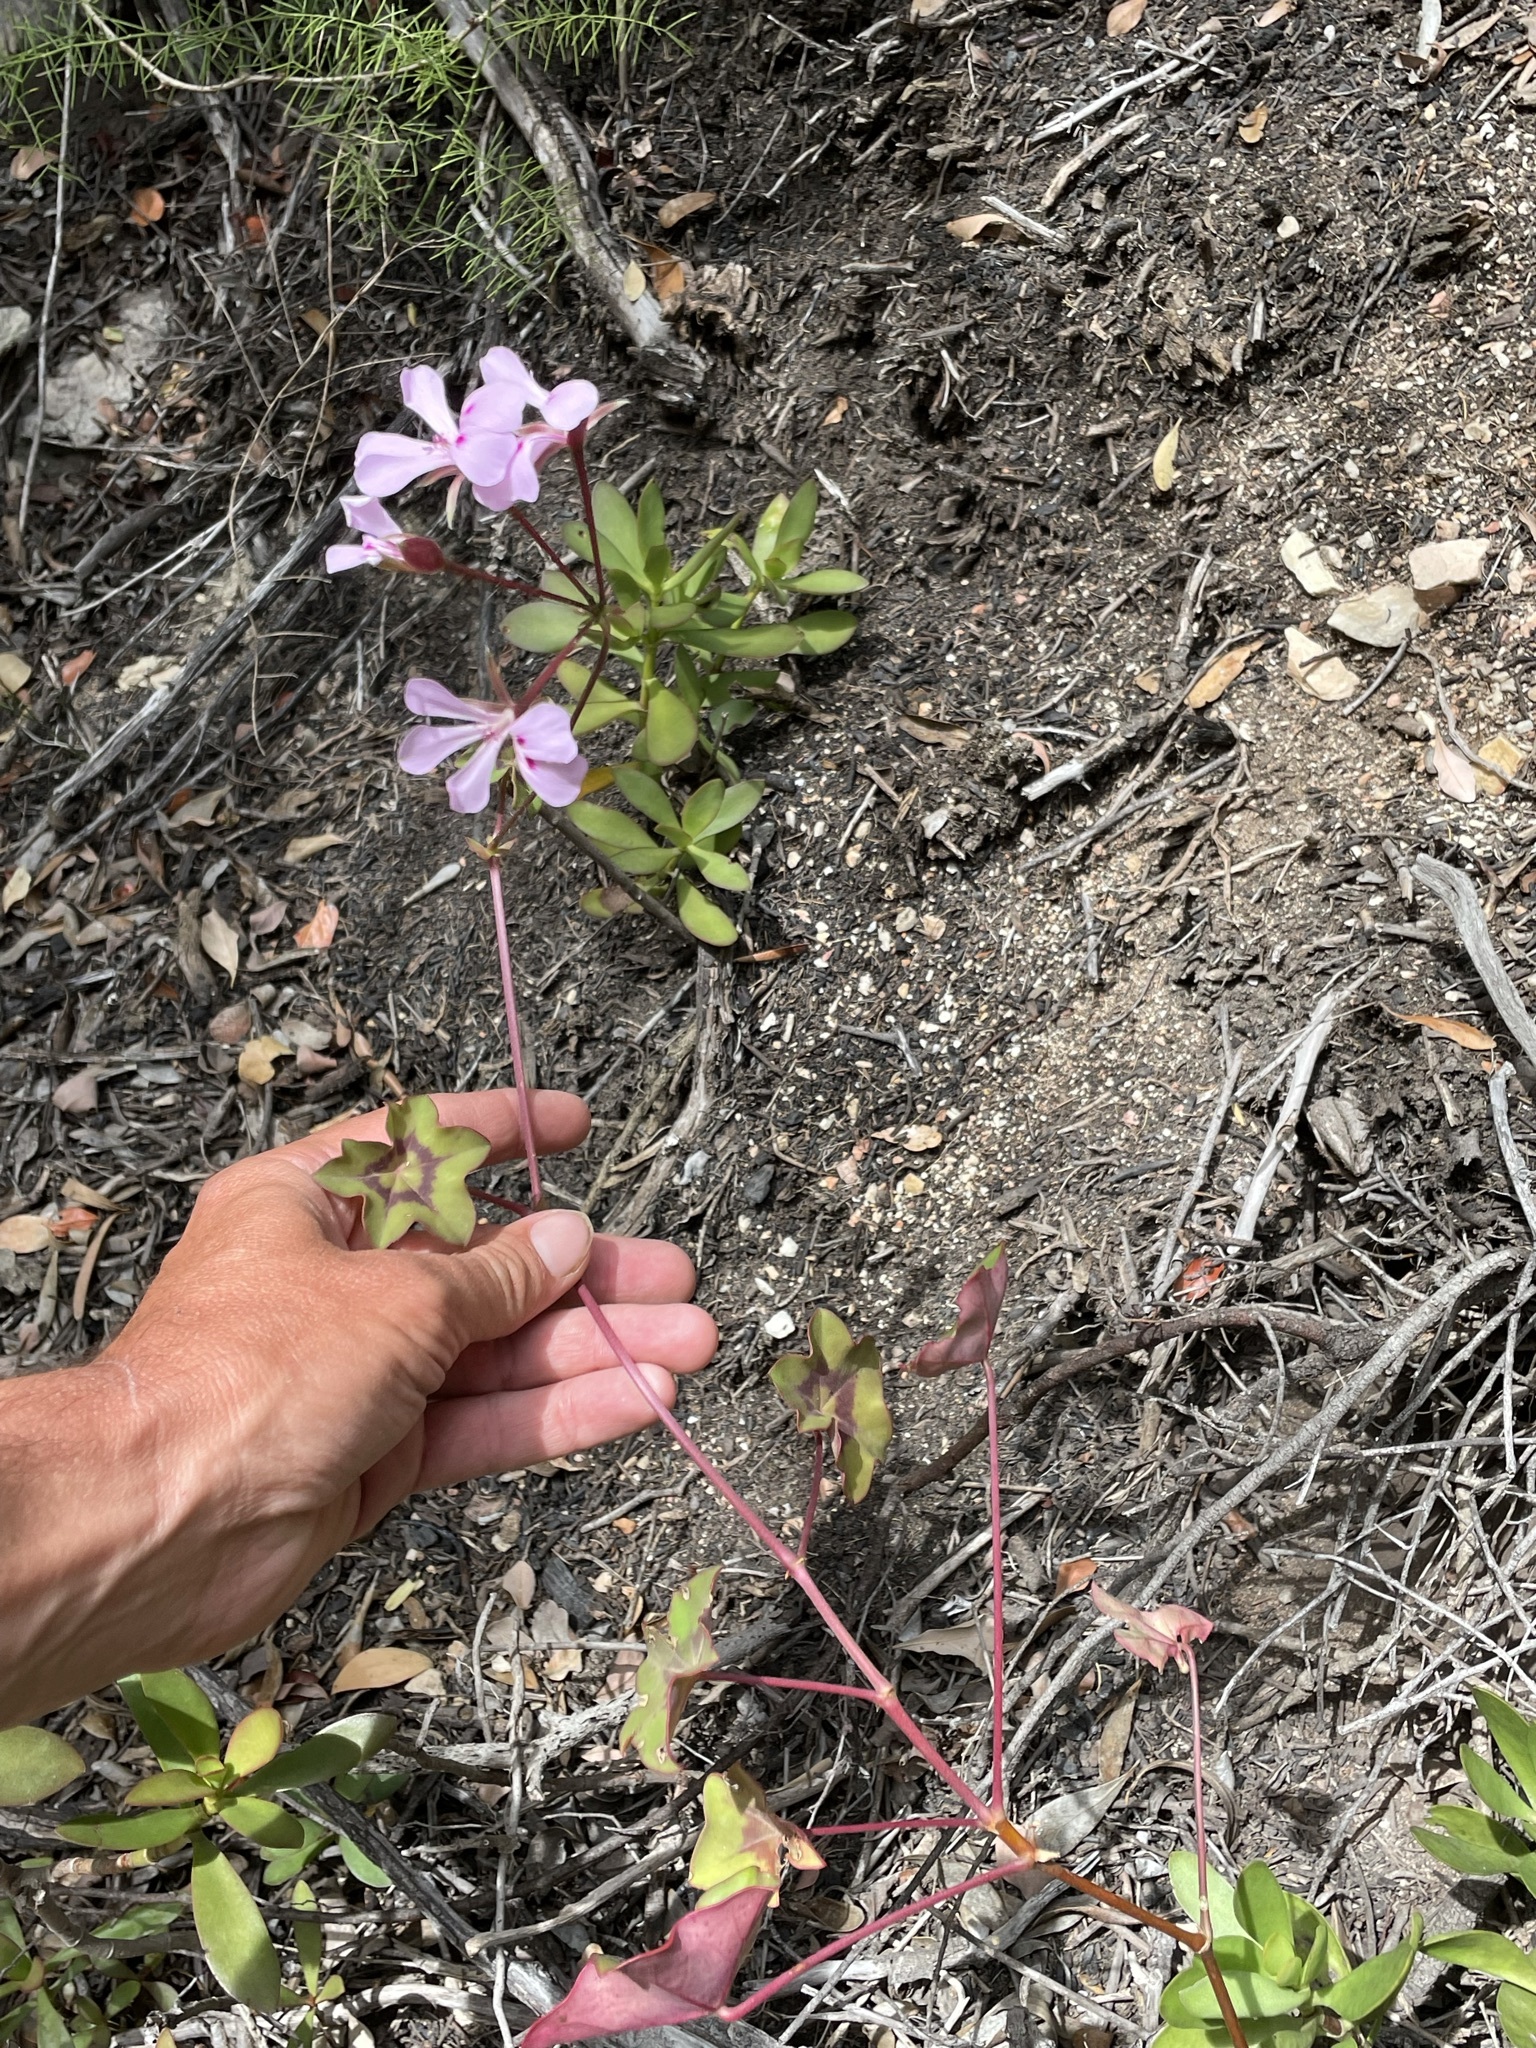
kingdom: Plantae
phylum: Tracheophyta
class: Magnoliopsida
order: Geraniales
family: Geraniaceae
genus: Pelargonium
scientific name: Pelargonium peltatum
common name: Ivyleaf geranium
